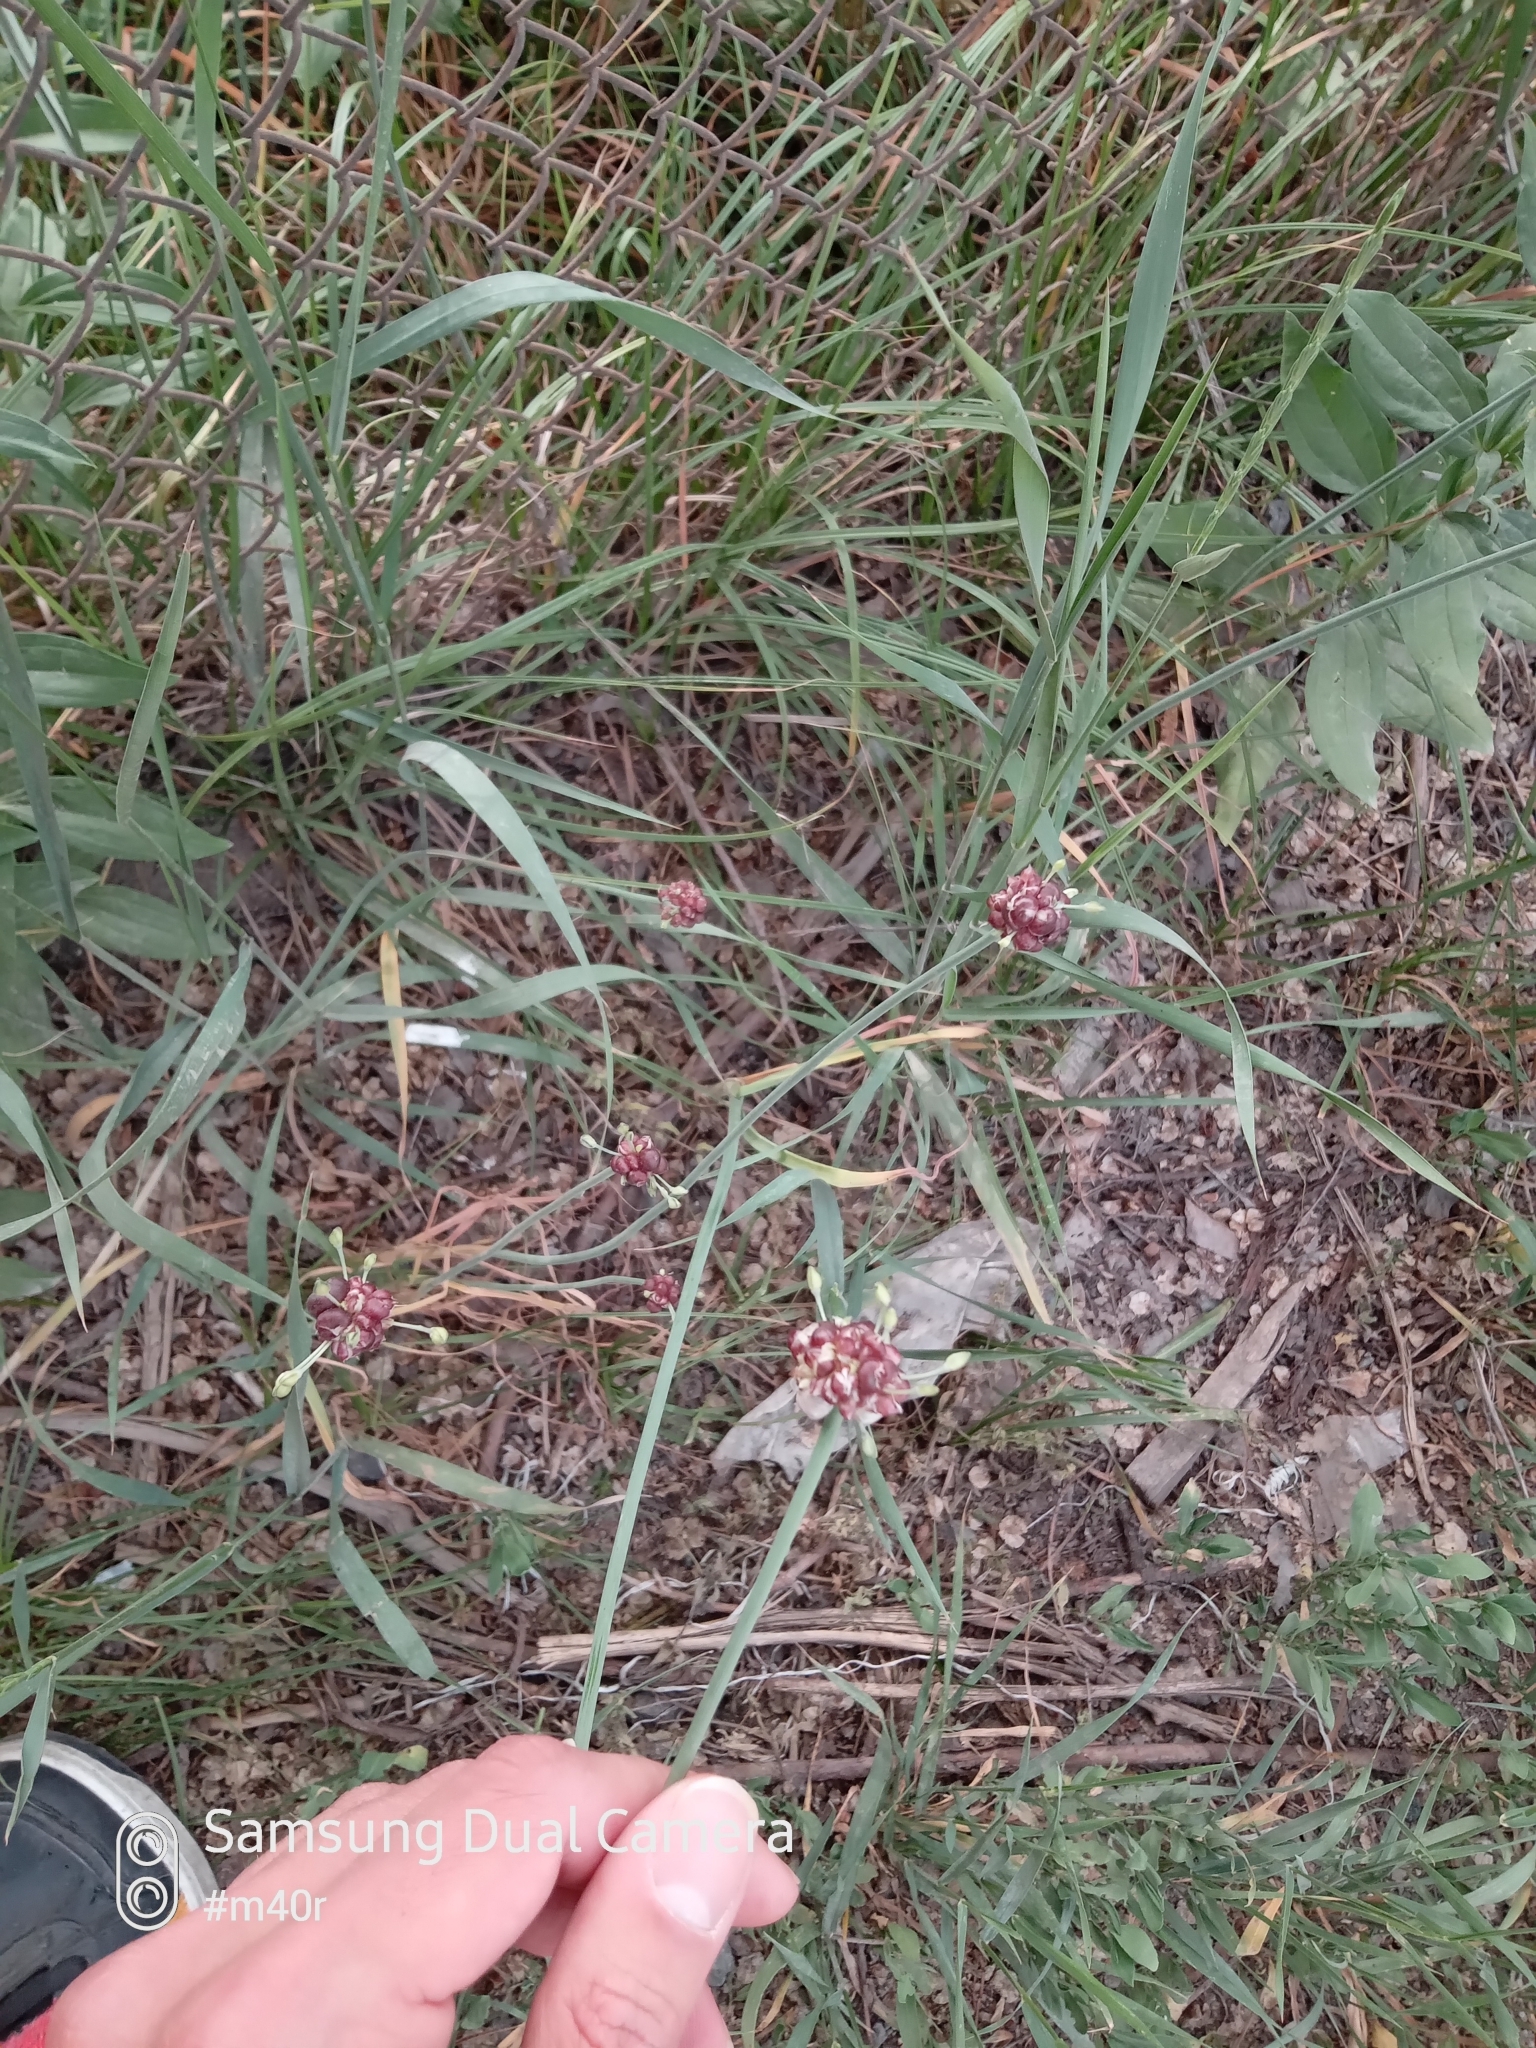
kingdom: Plantae
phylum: Tracheophyta
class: Liliopsida
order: Asparagales
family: Amaryllidaceae
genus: Allium
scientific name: Allium caeruleum
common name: Blue-of-the-heavens
